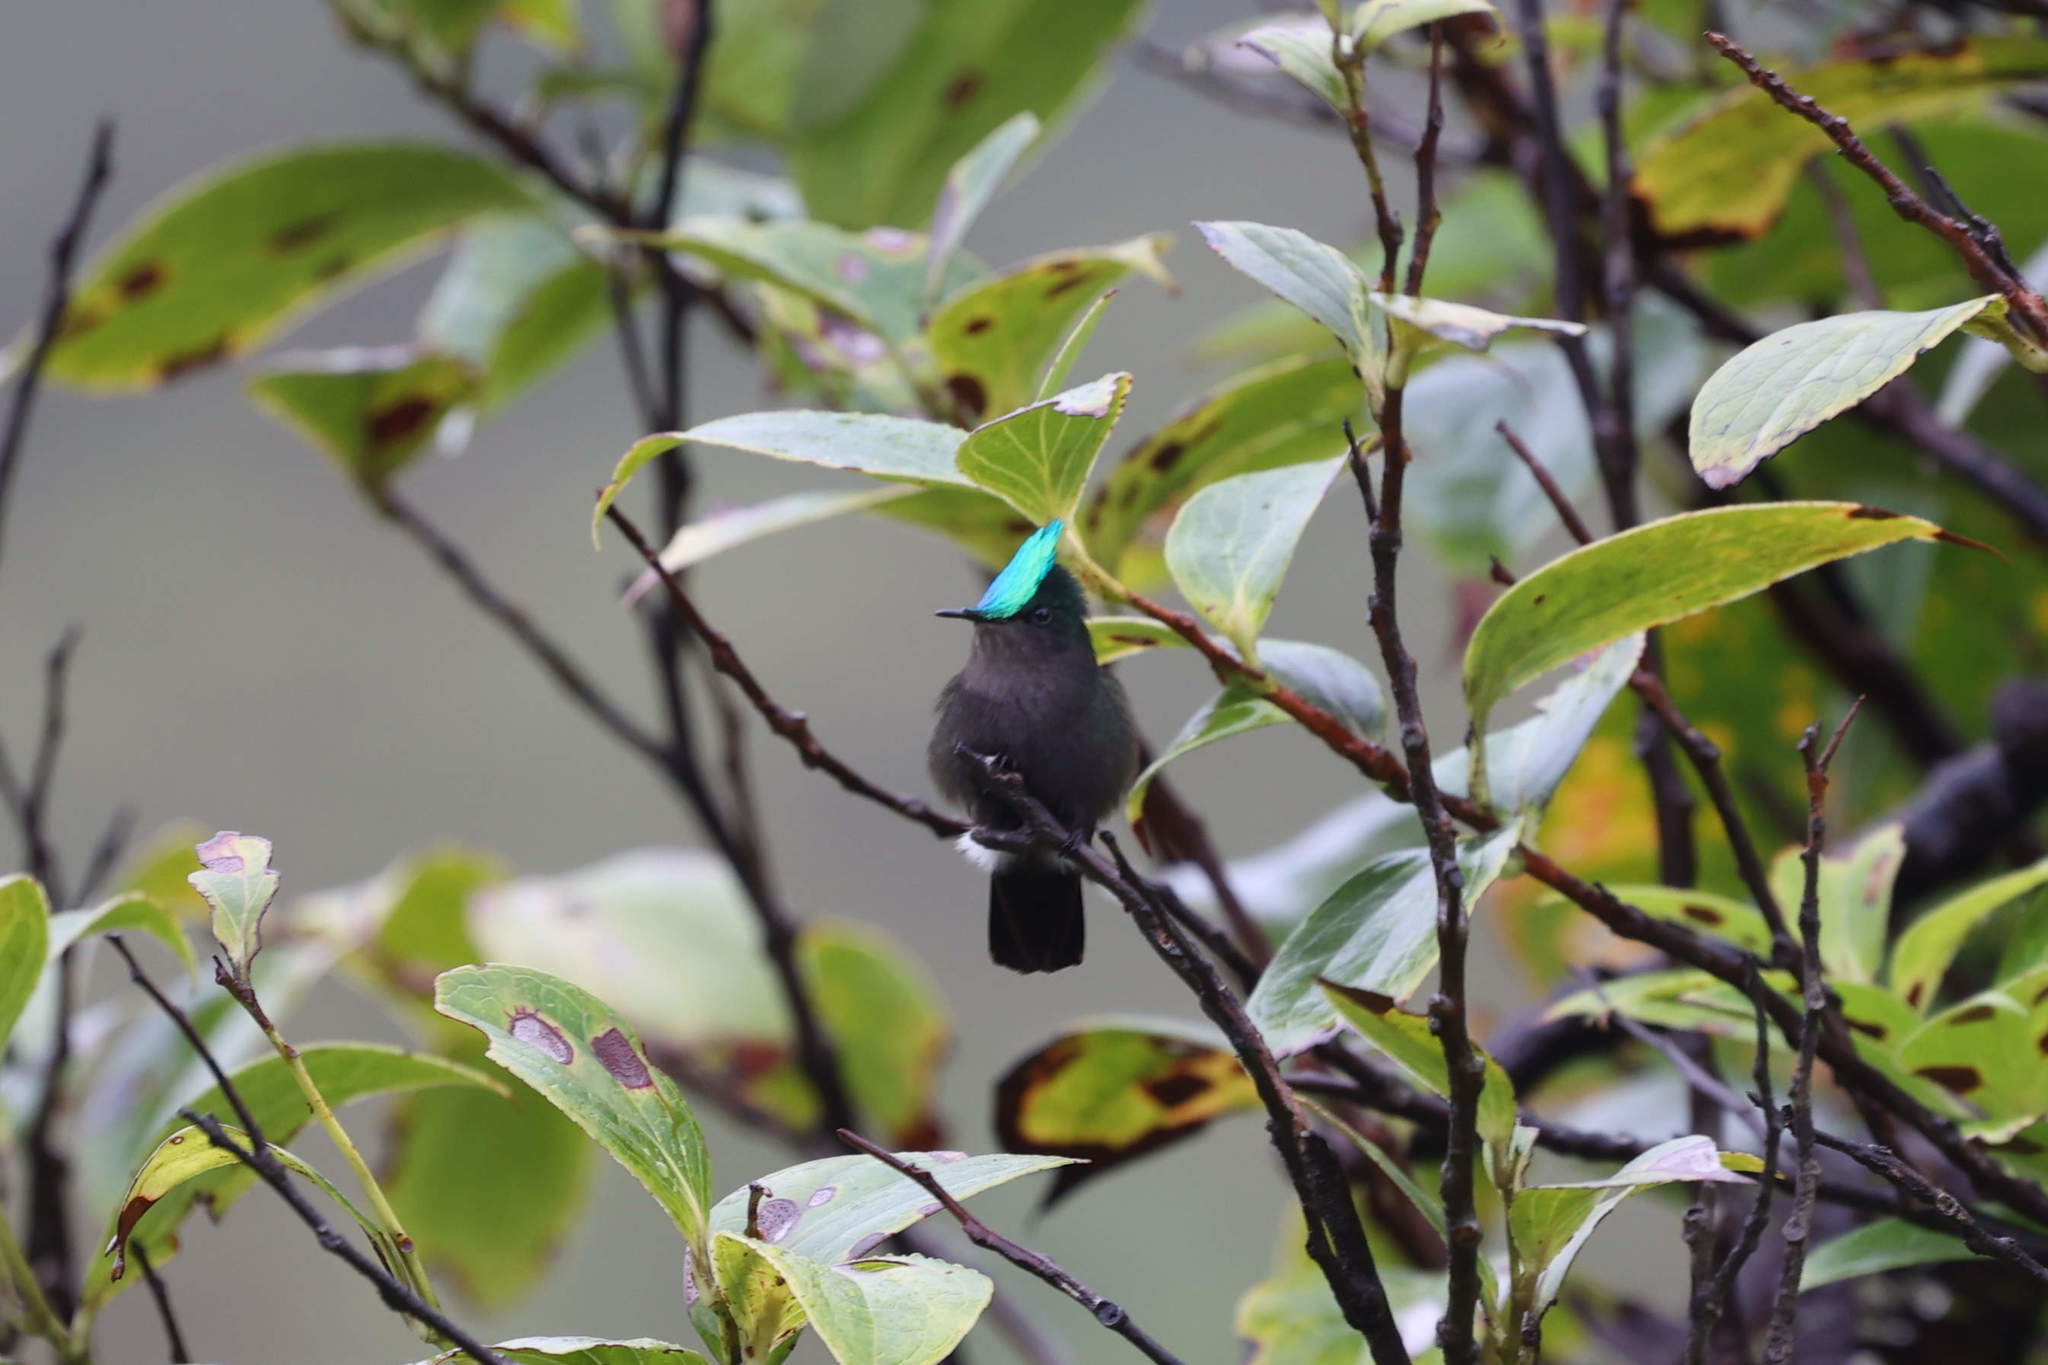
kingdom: Animalia
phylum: Chordata
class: Aves
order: Apodiformes
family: Trochilidae
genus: Orthorhyncus
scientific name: Orthorhyncus cristatus
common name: Antillean crested hummingbird
